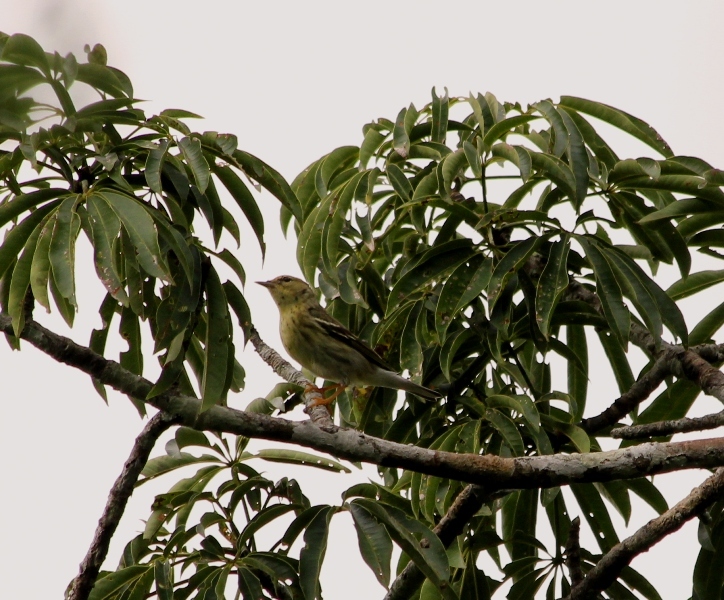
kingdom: Animalia
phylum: Chordata
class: Aves
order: Passeriformes
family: Parulidae
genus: Setophaga
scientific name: Setophaga striata
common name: Blackpoll warbler
